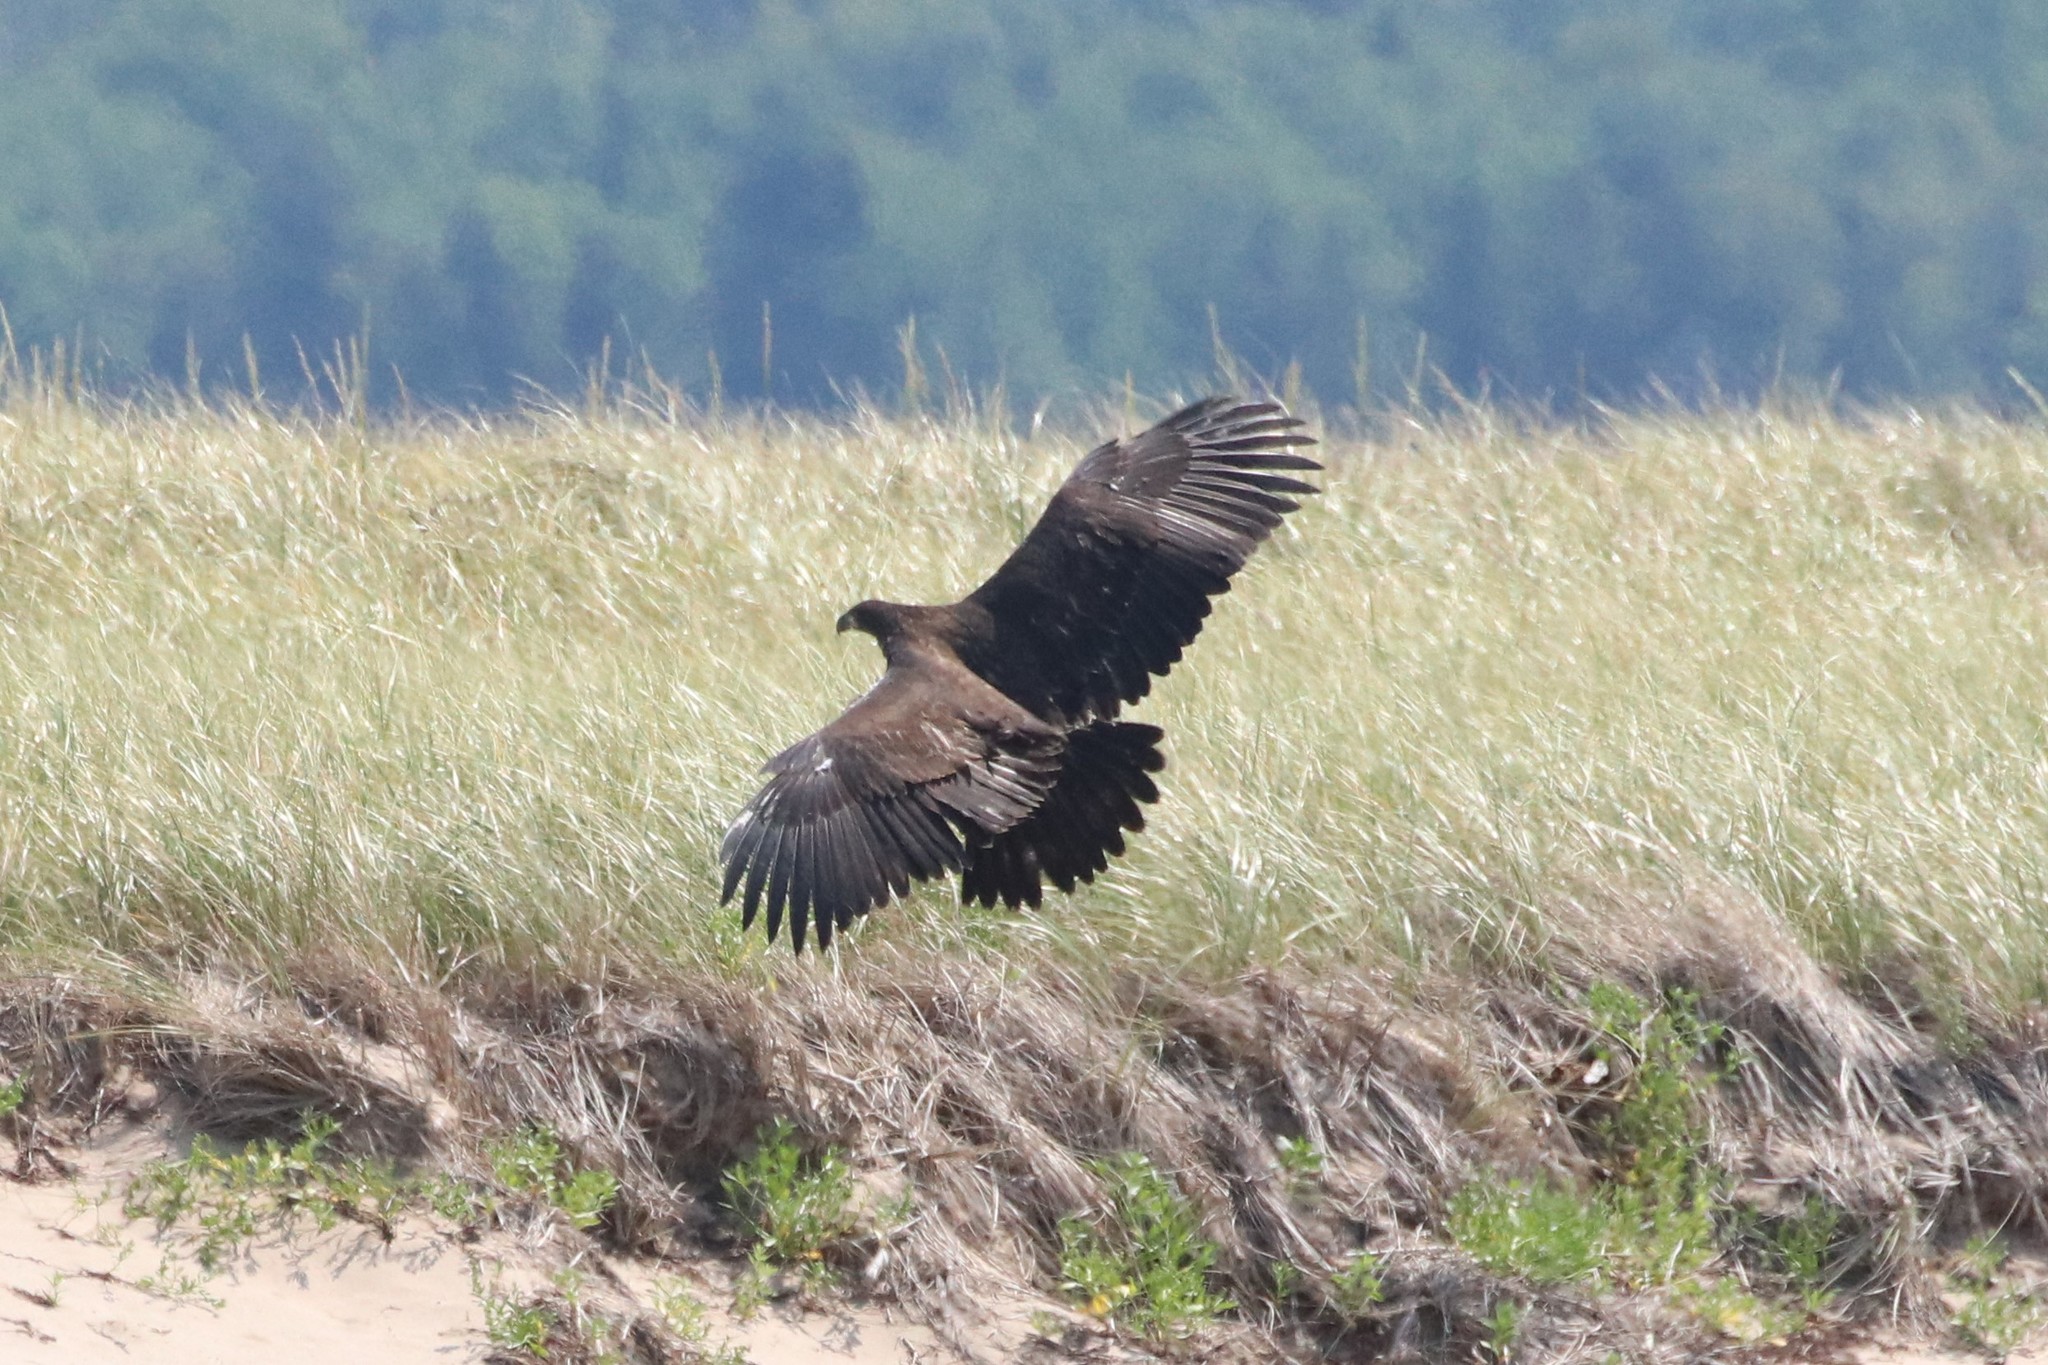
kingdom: Animalia
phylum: Chordata
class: Aves
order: Accipitriformes
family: Accipitridae
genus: Haliaeetus
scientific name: Haliaeetus leucocephalus
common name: Bald eagle
